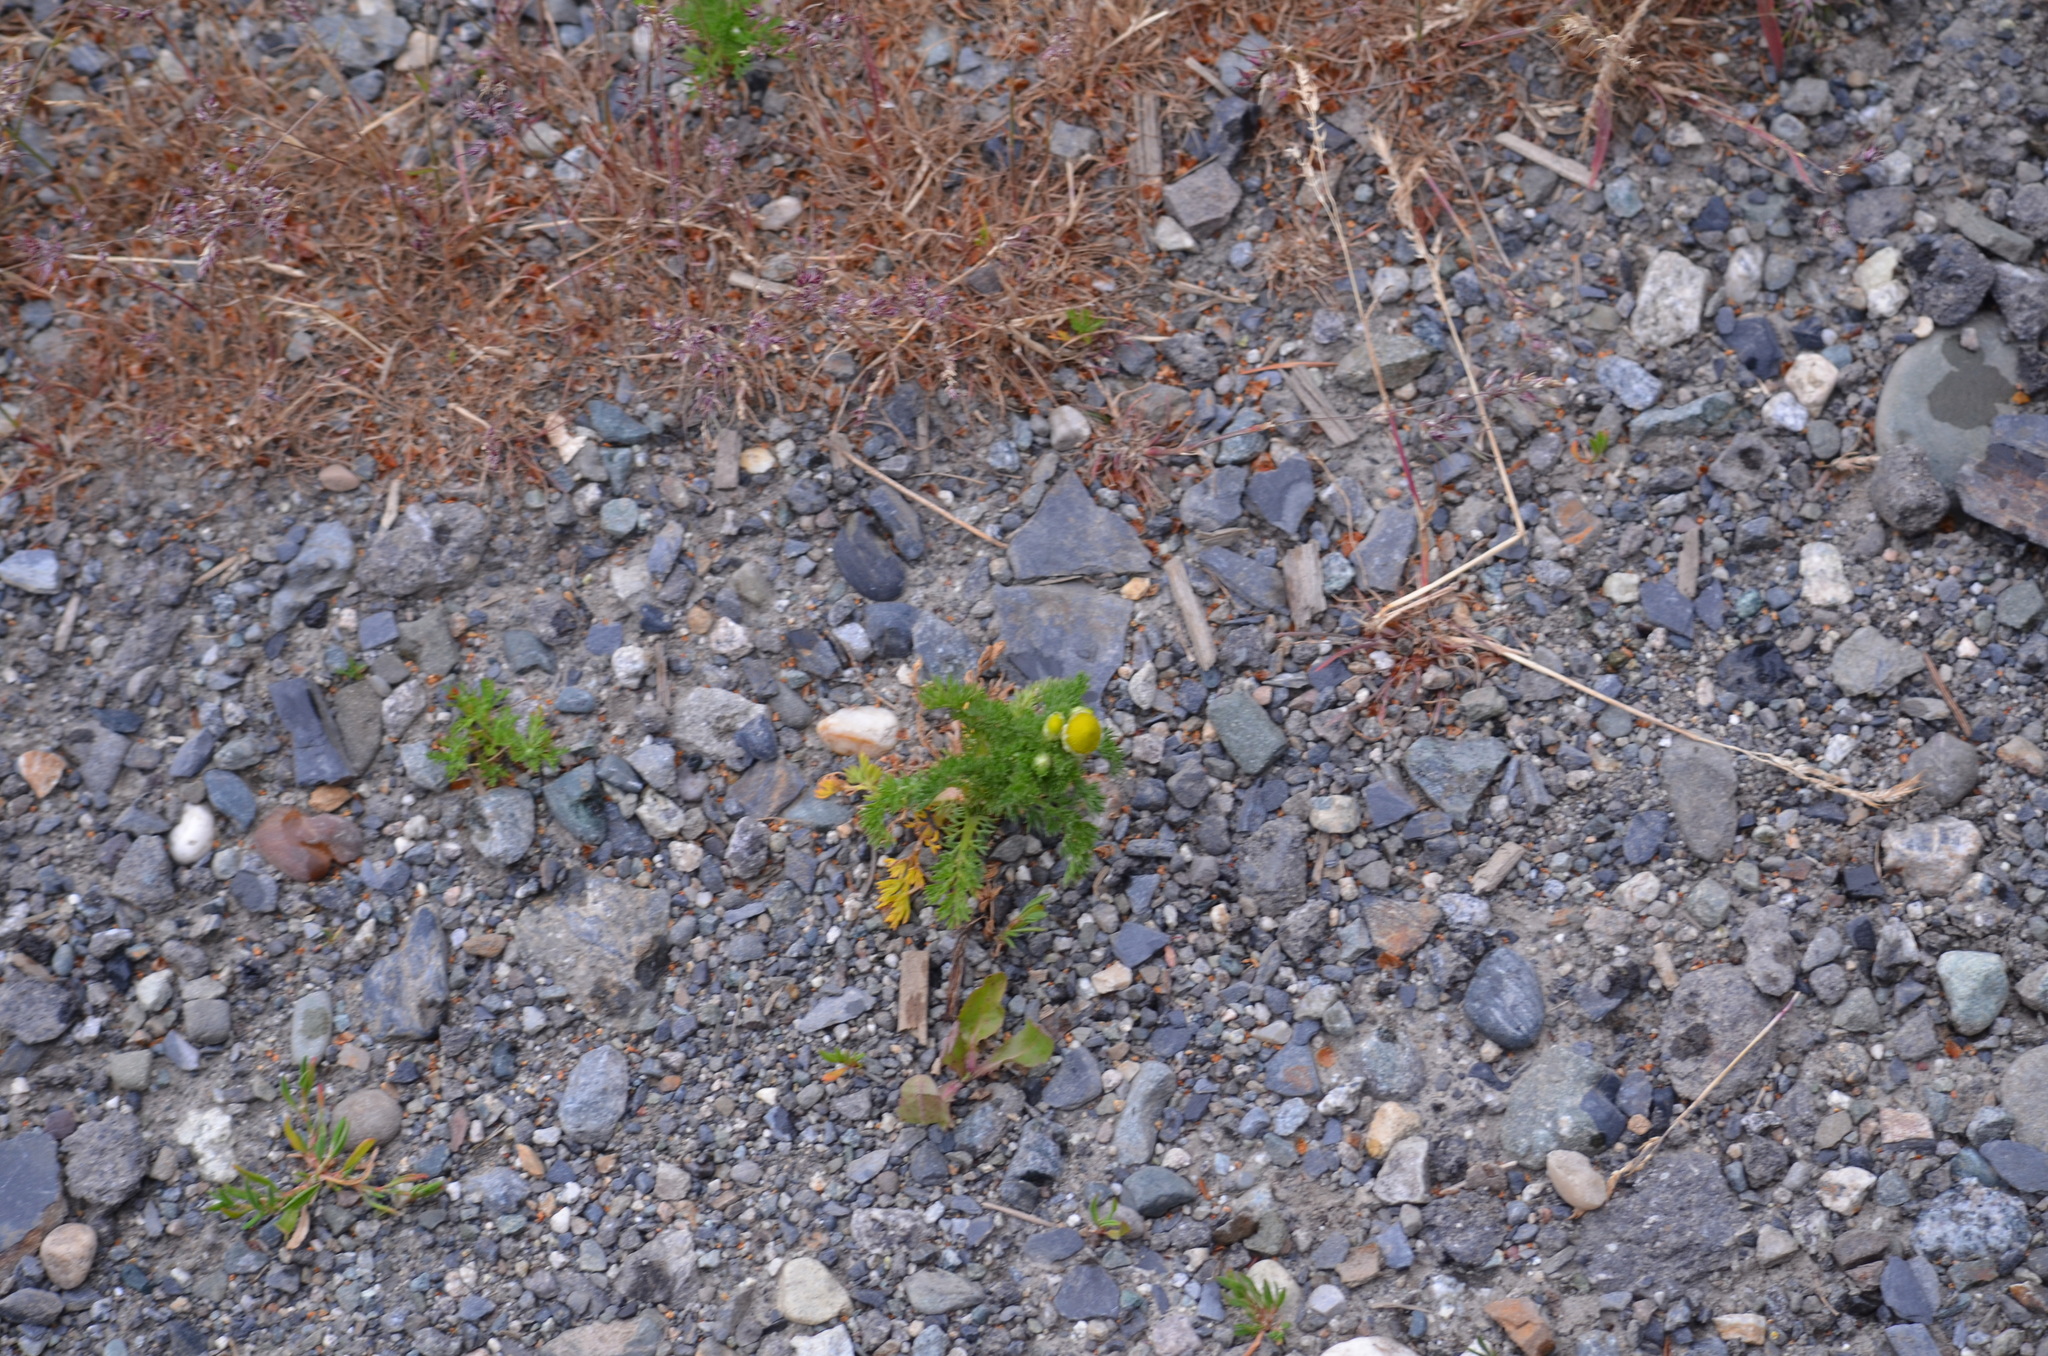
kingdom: Plantae
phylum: Tracheophyta
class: Magnoliopsida
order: Asterales
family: Asteraceae
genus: Matricaria
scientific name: Matricaria discoidea
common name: Disc mayweed
